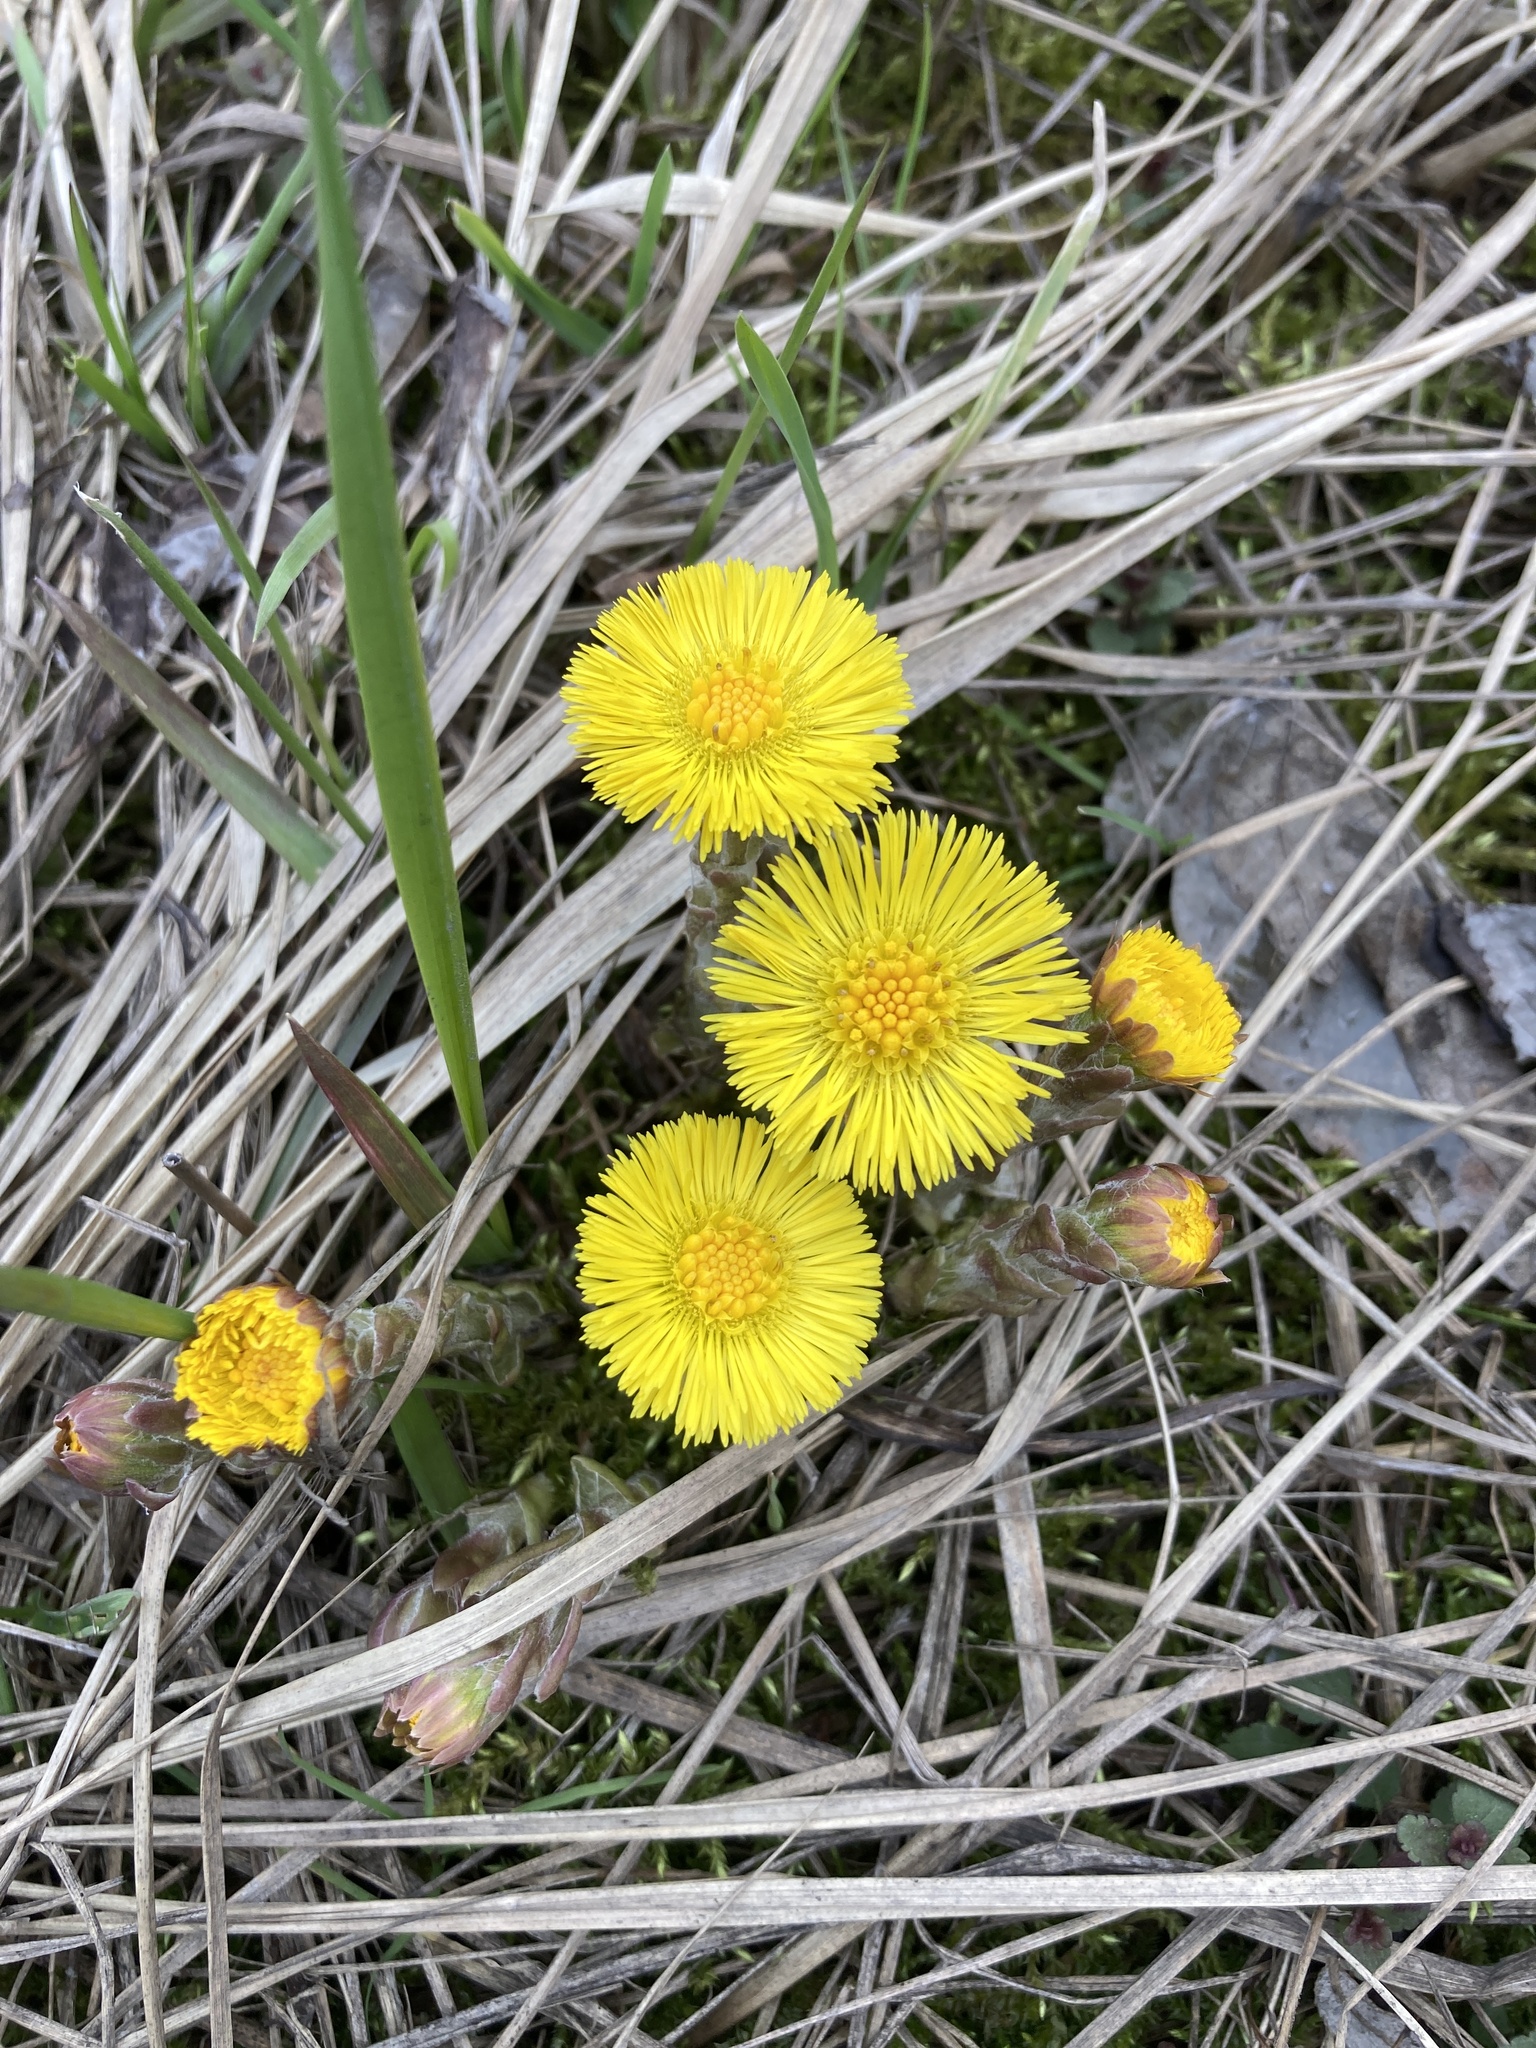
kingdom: Plantae
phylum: Tracheophyta
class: Magnoliopsida
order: Asterales
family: Asteraceae
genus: Tussilago
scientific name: Tussilago farfara
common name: Coltsfoot
